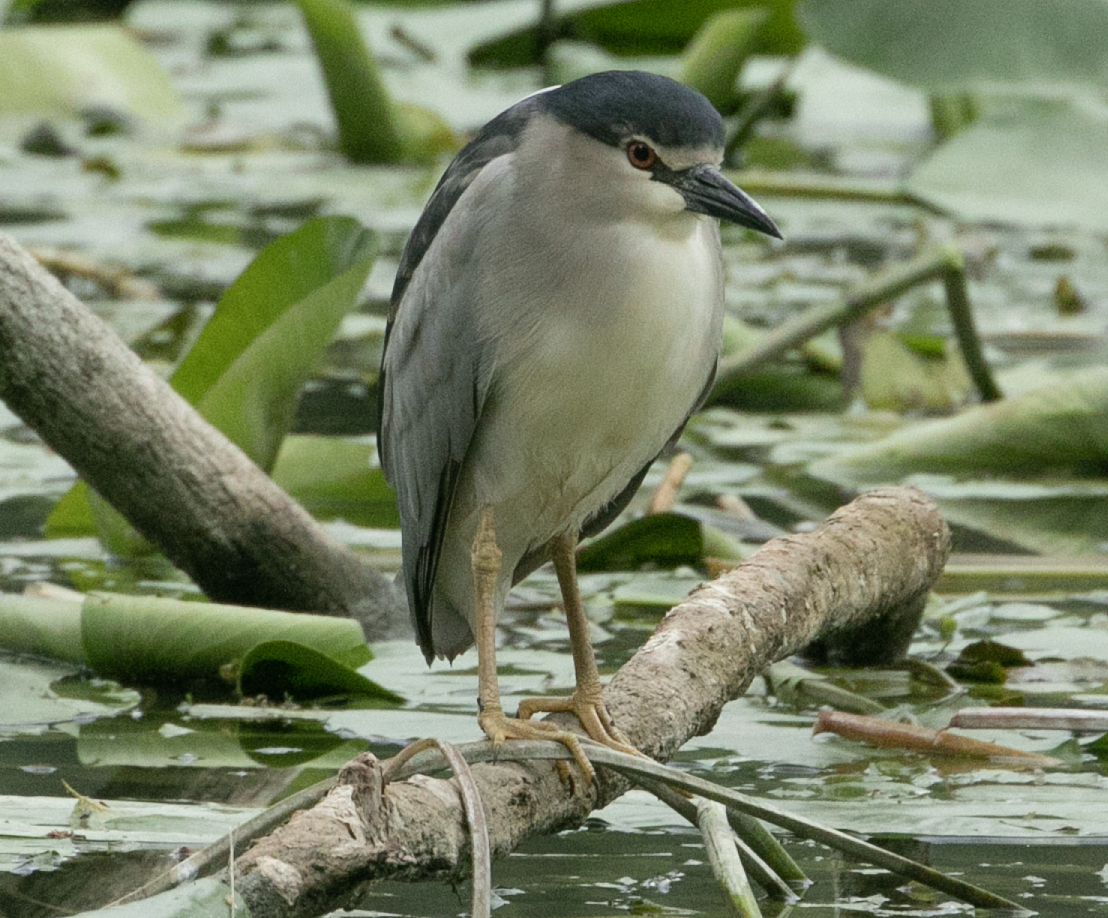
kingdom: Animalia
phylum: Chordata
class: Aves
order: Pelecaniformes
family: Ardeidae
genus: Nycticorax
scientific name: Nycticorax nycticorax
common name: Black-crowned night heron
